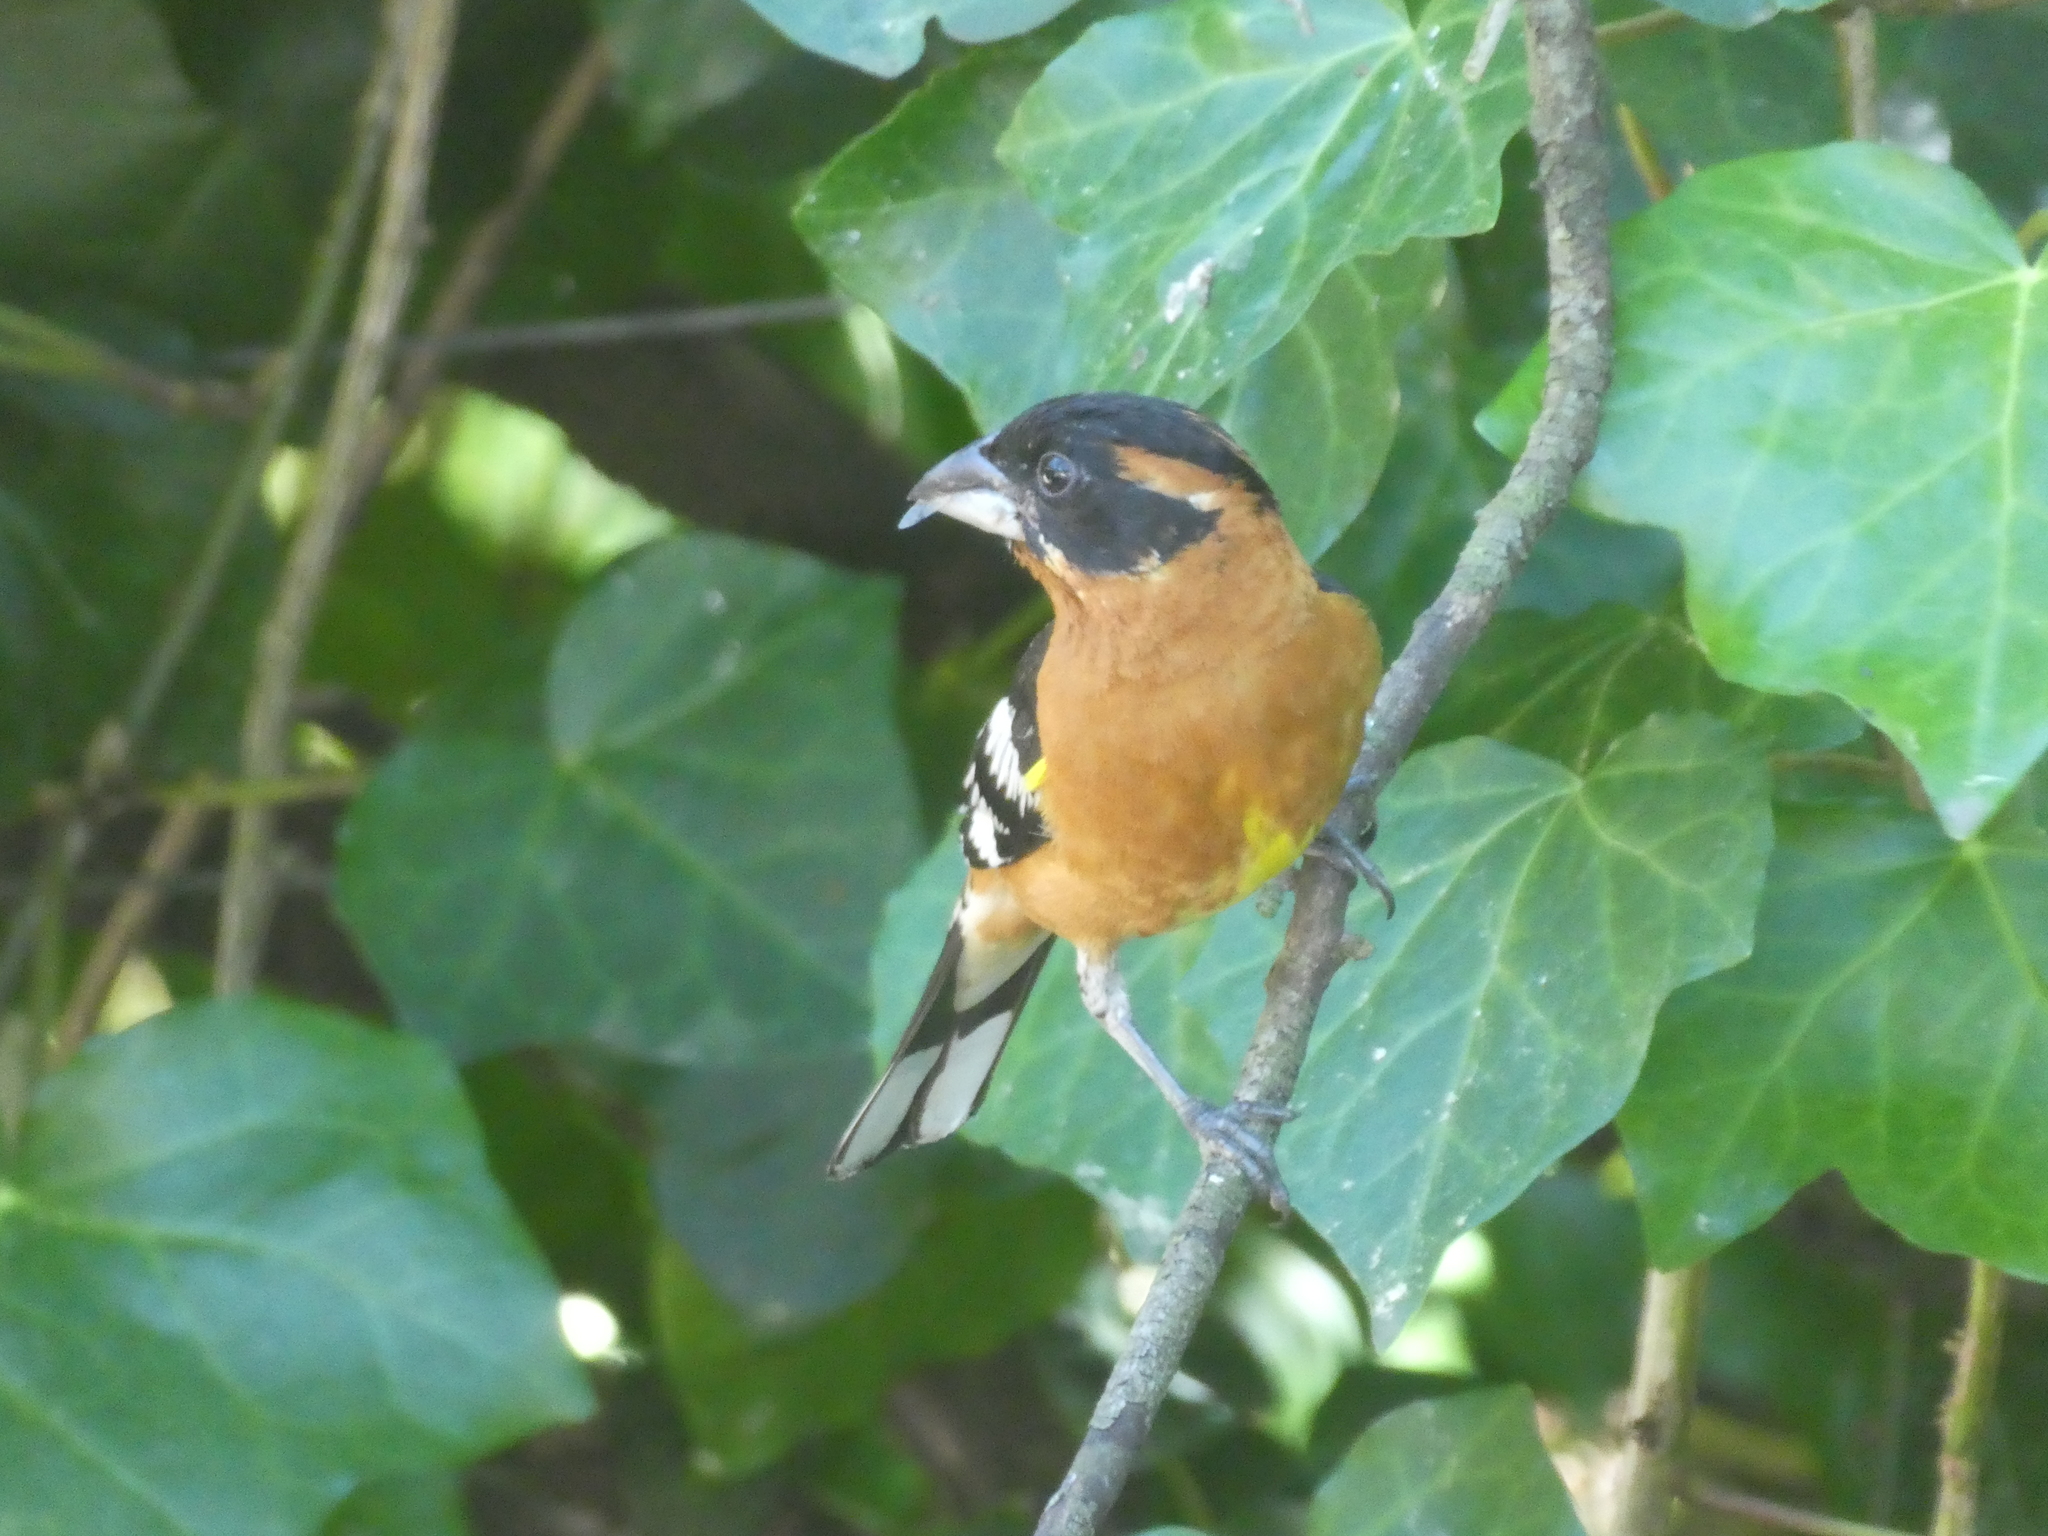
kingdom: Animalia
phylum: Chordata
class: Aves
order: Passeriformes
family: Cardinalidae
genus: Pheucticus
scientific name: Pheucticus melanocephalus
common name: Black-headed grosbeak
